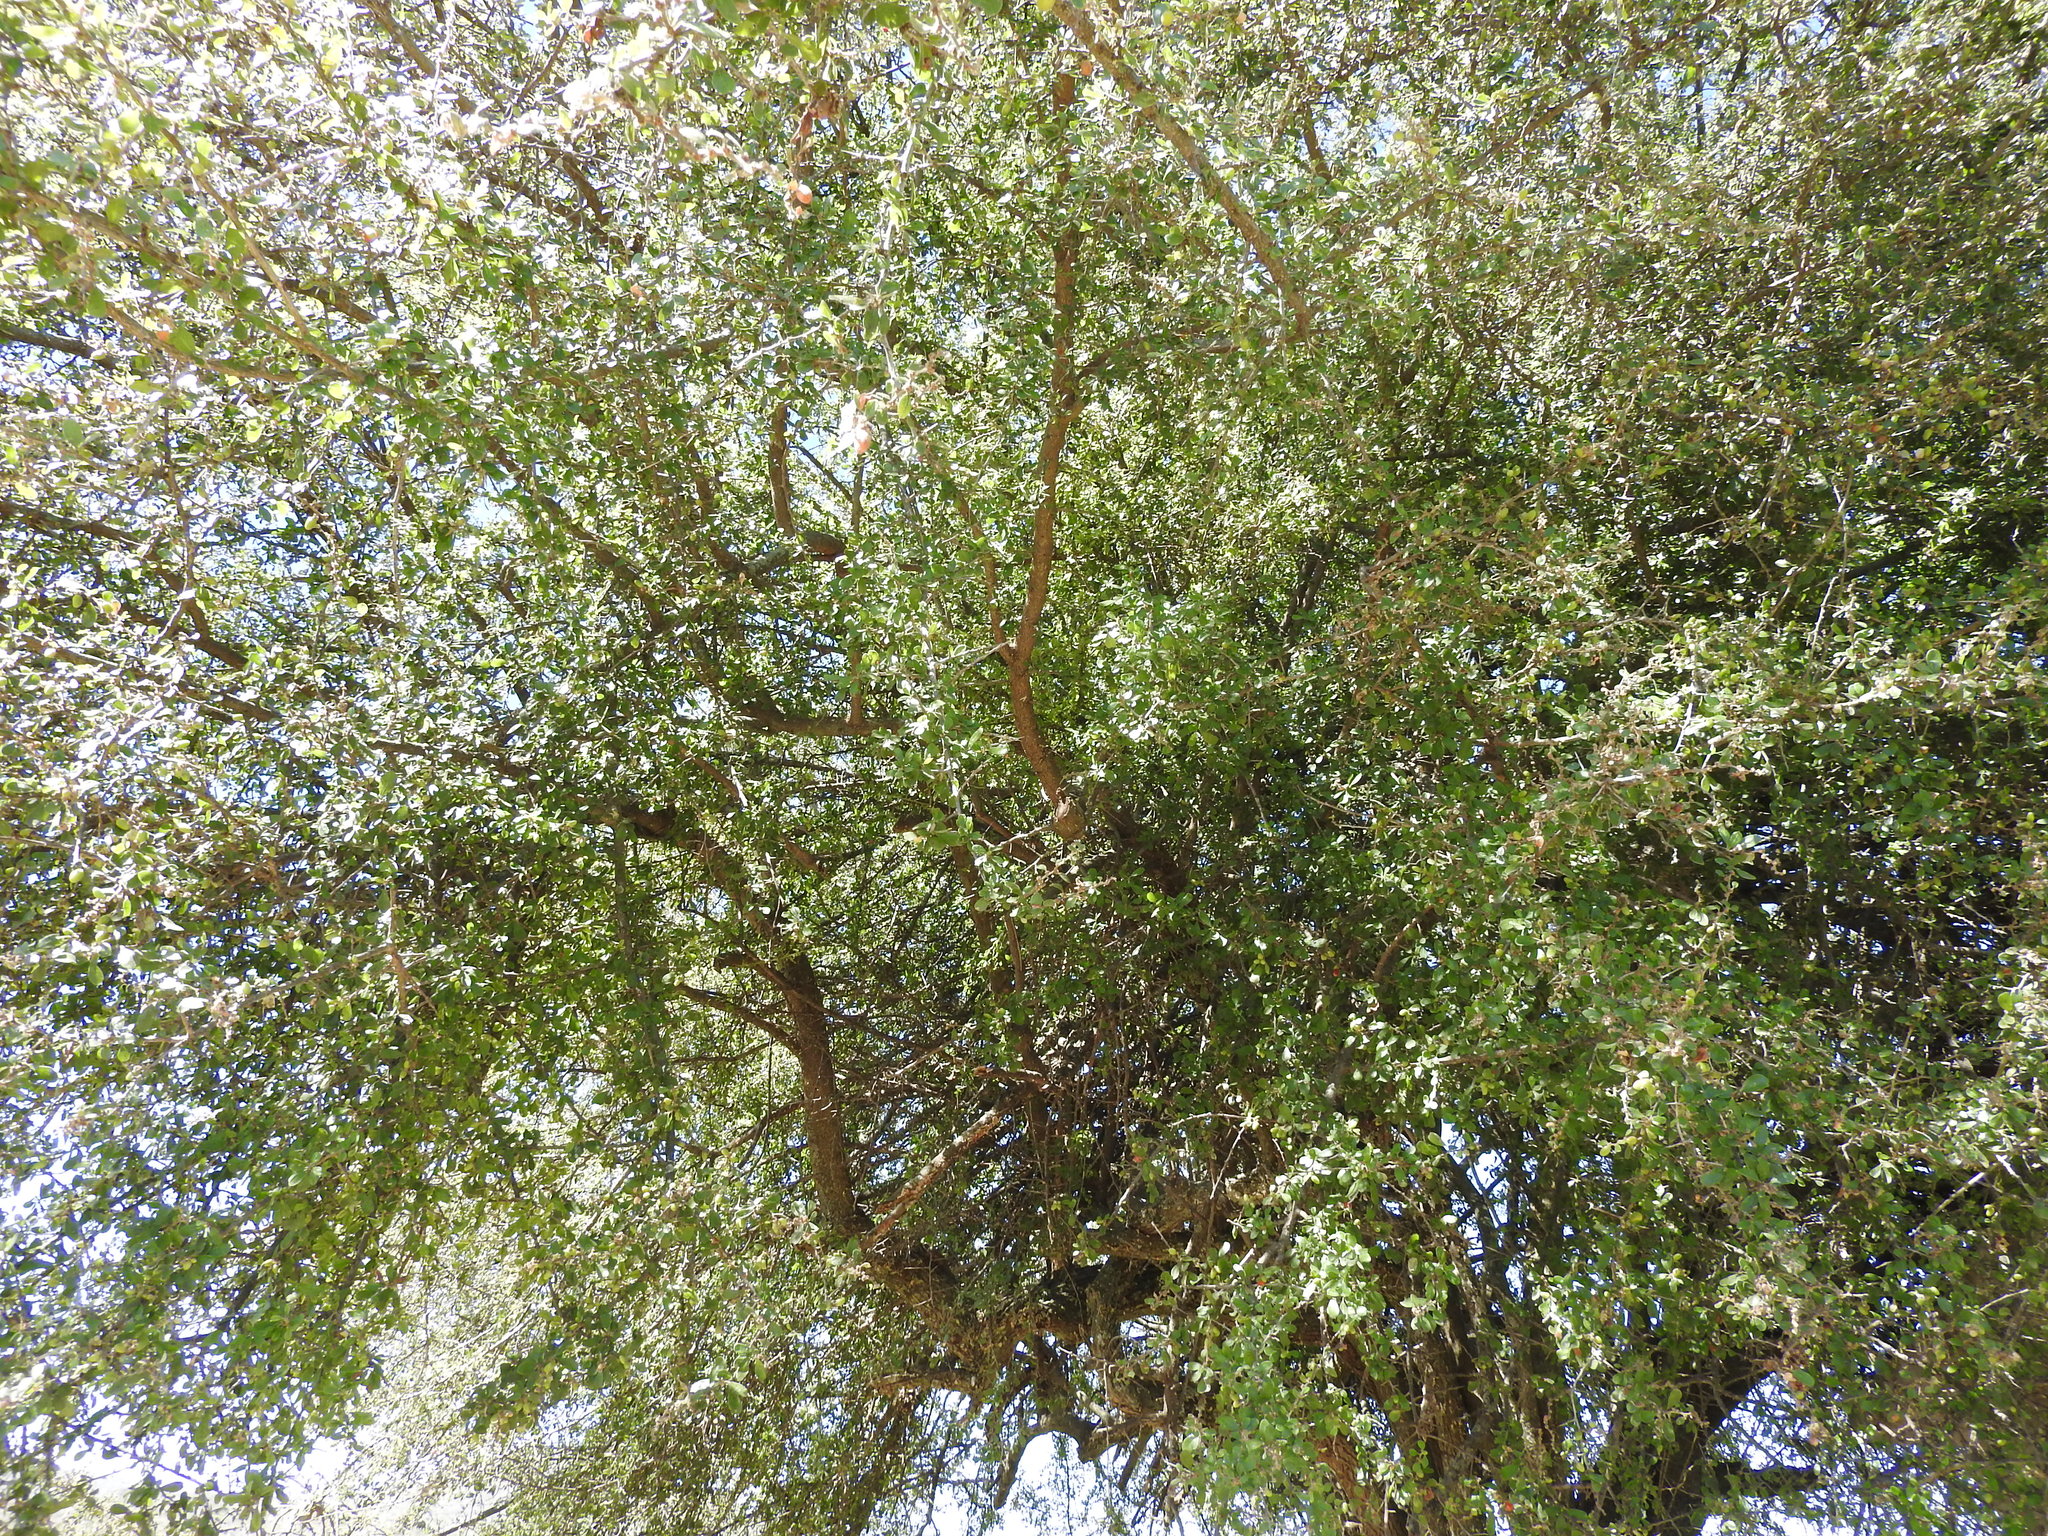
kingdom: Plantae
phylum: Tracheophyta
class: Magnoliopsida
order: Rosales
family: Rhamnaceae
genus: Condalia
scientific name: Condalia velutina
